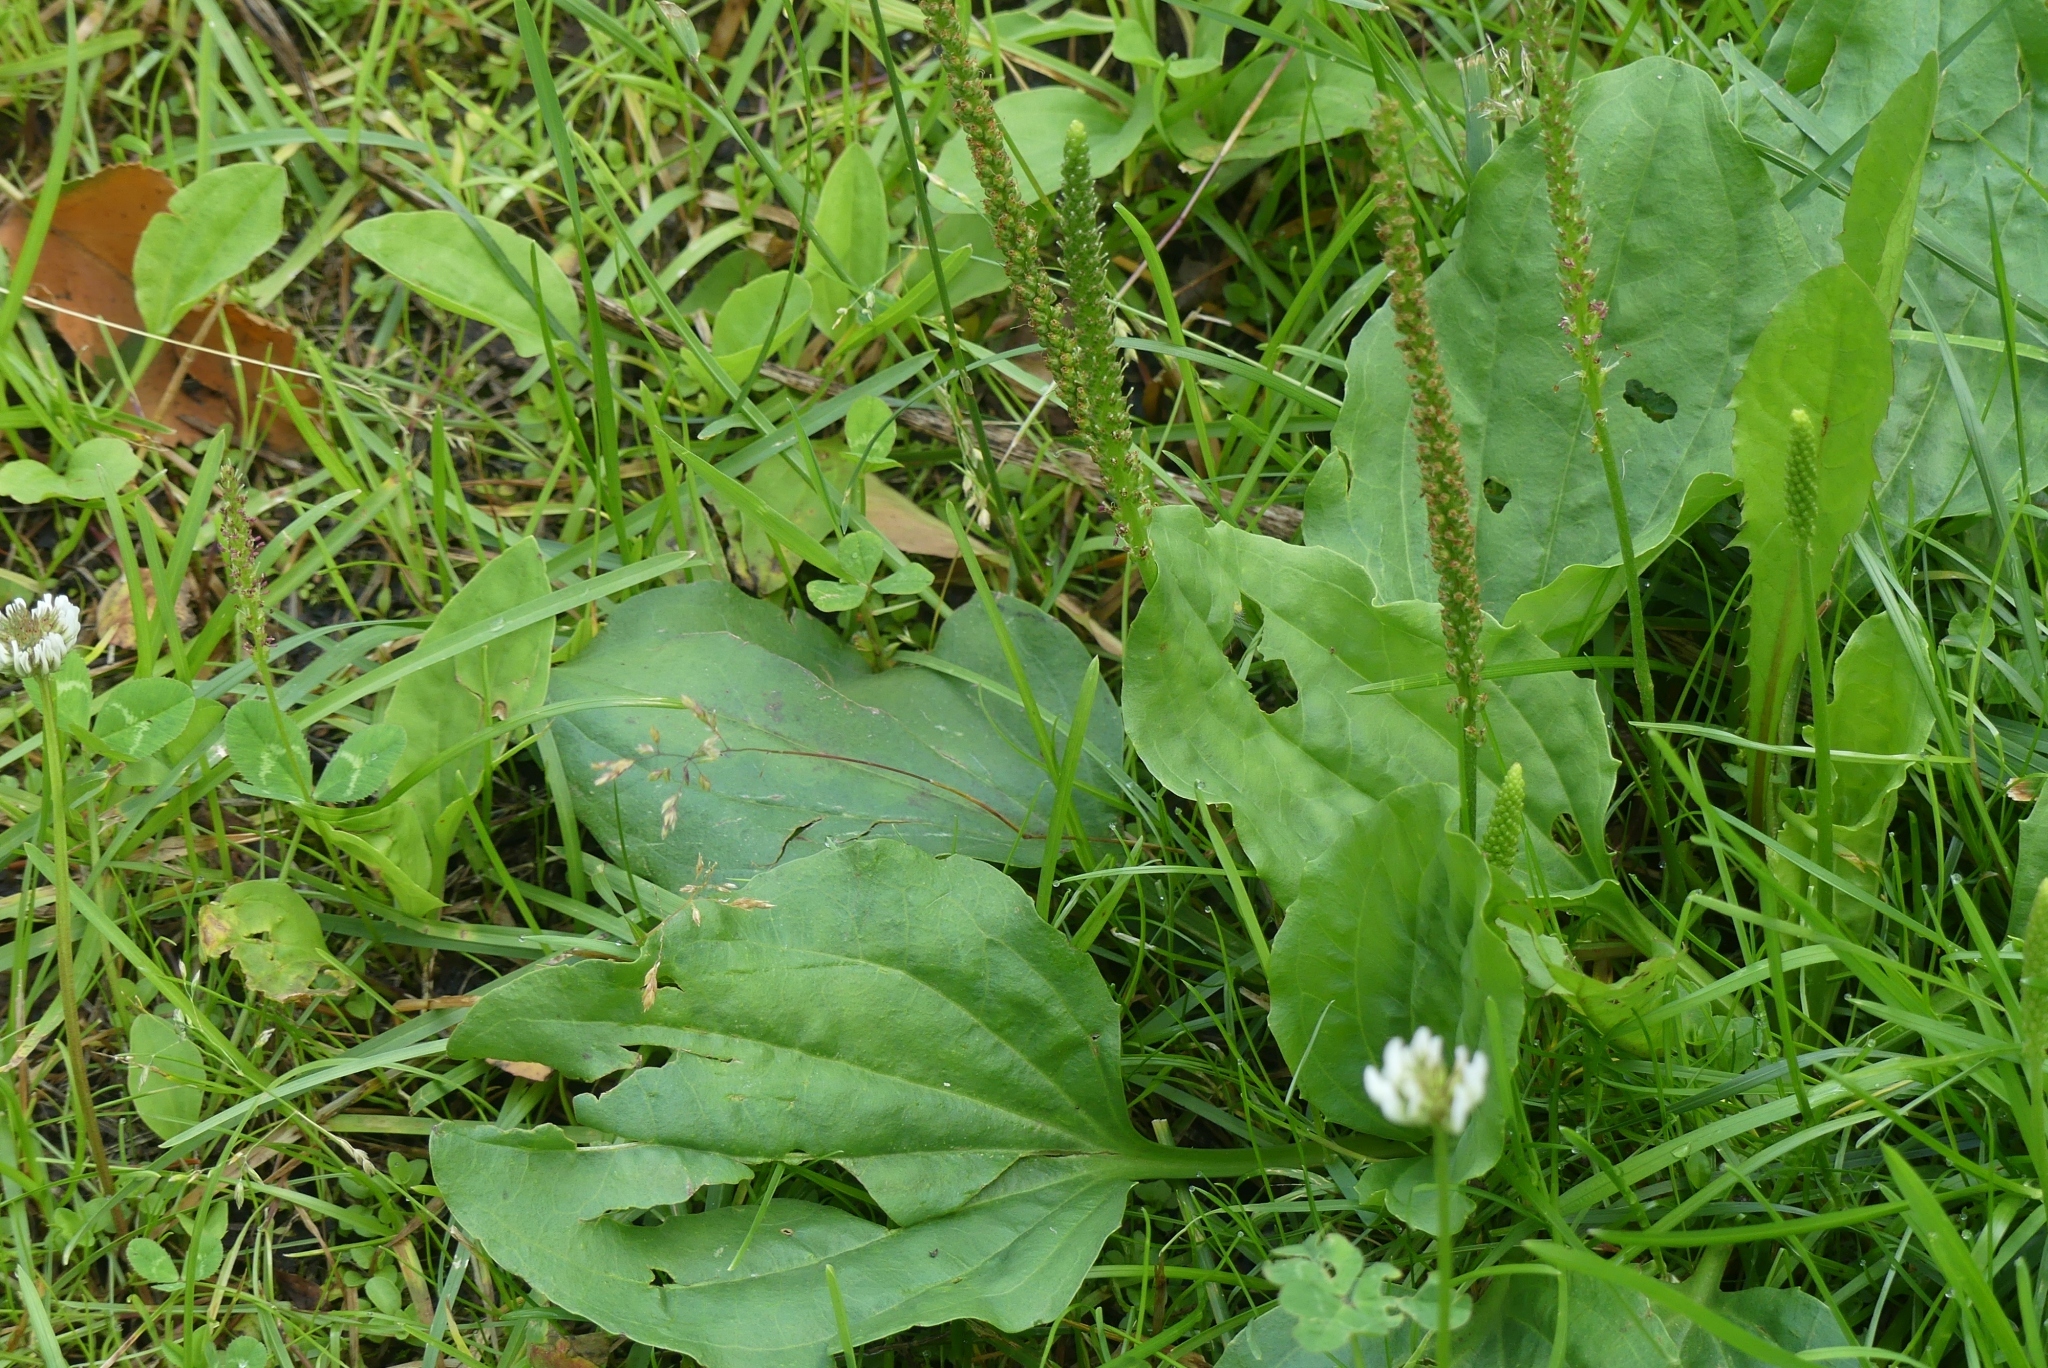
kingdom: Plantae
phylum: Tracheophyta
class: Magnoliopsida
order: Lamiales
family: Plantaginaceae
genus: Plantago
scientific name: Plantago major
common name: Common plantain
